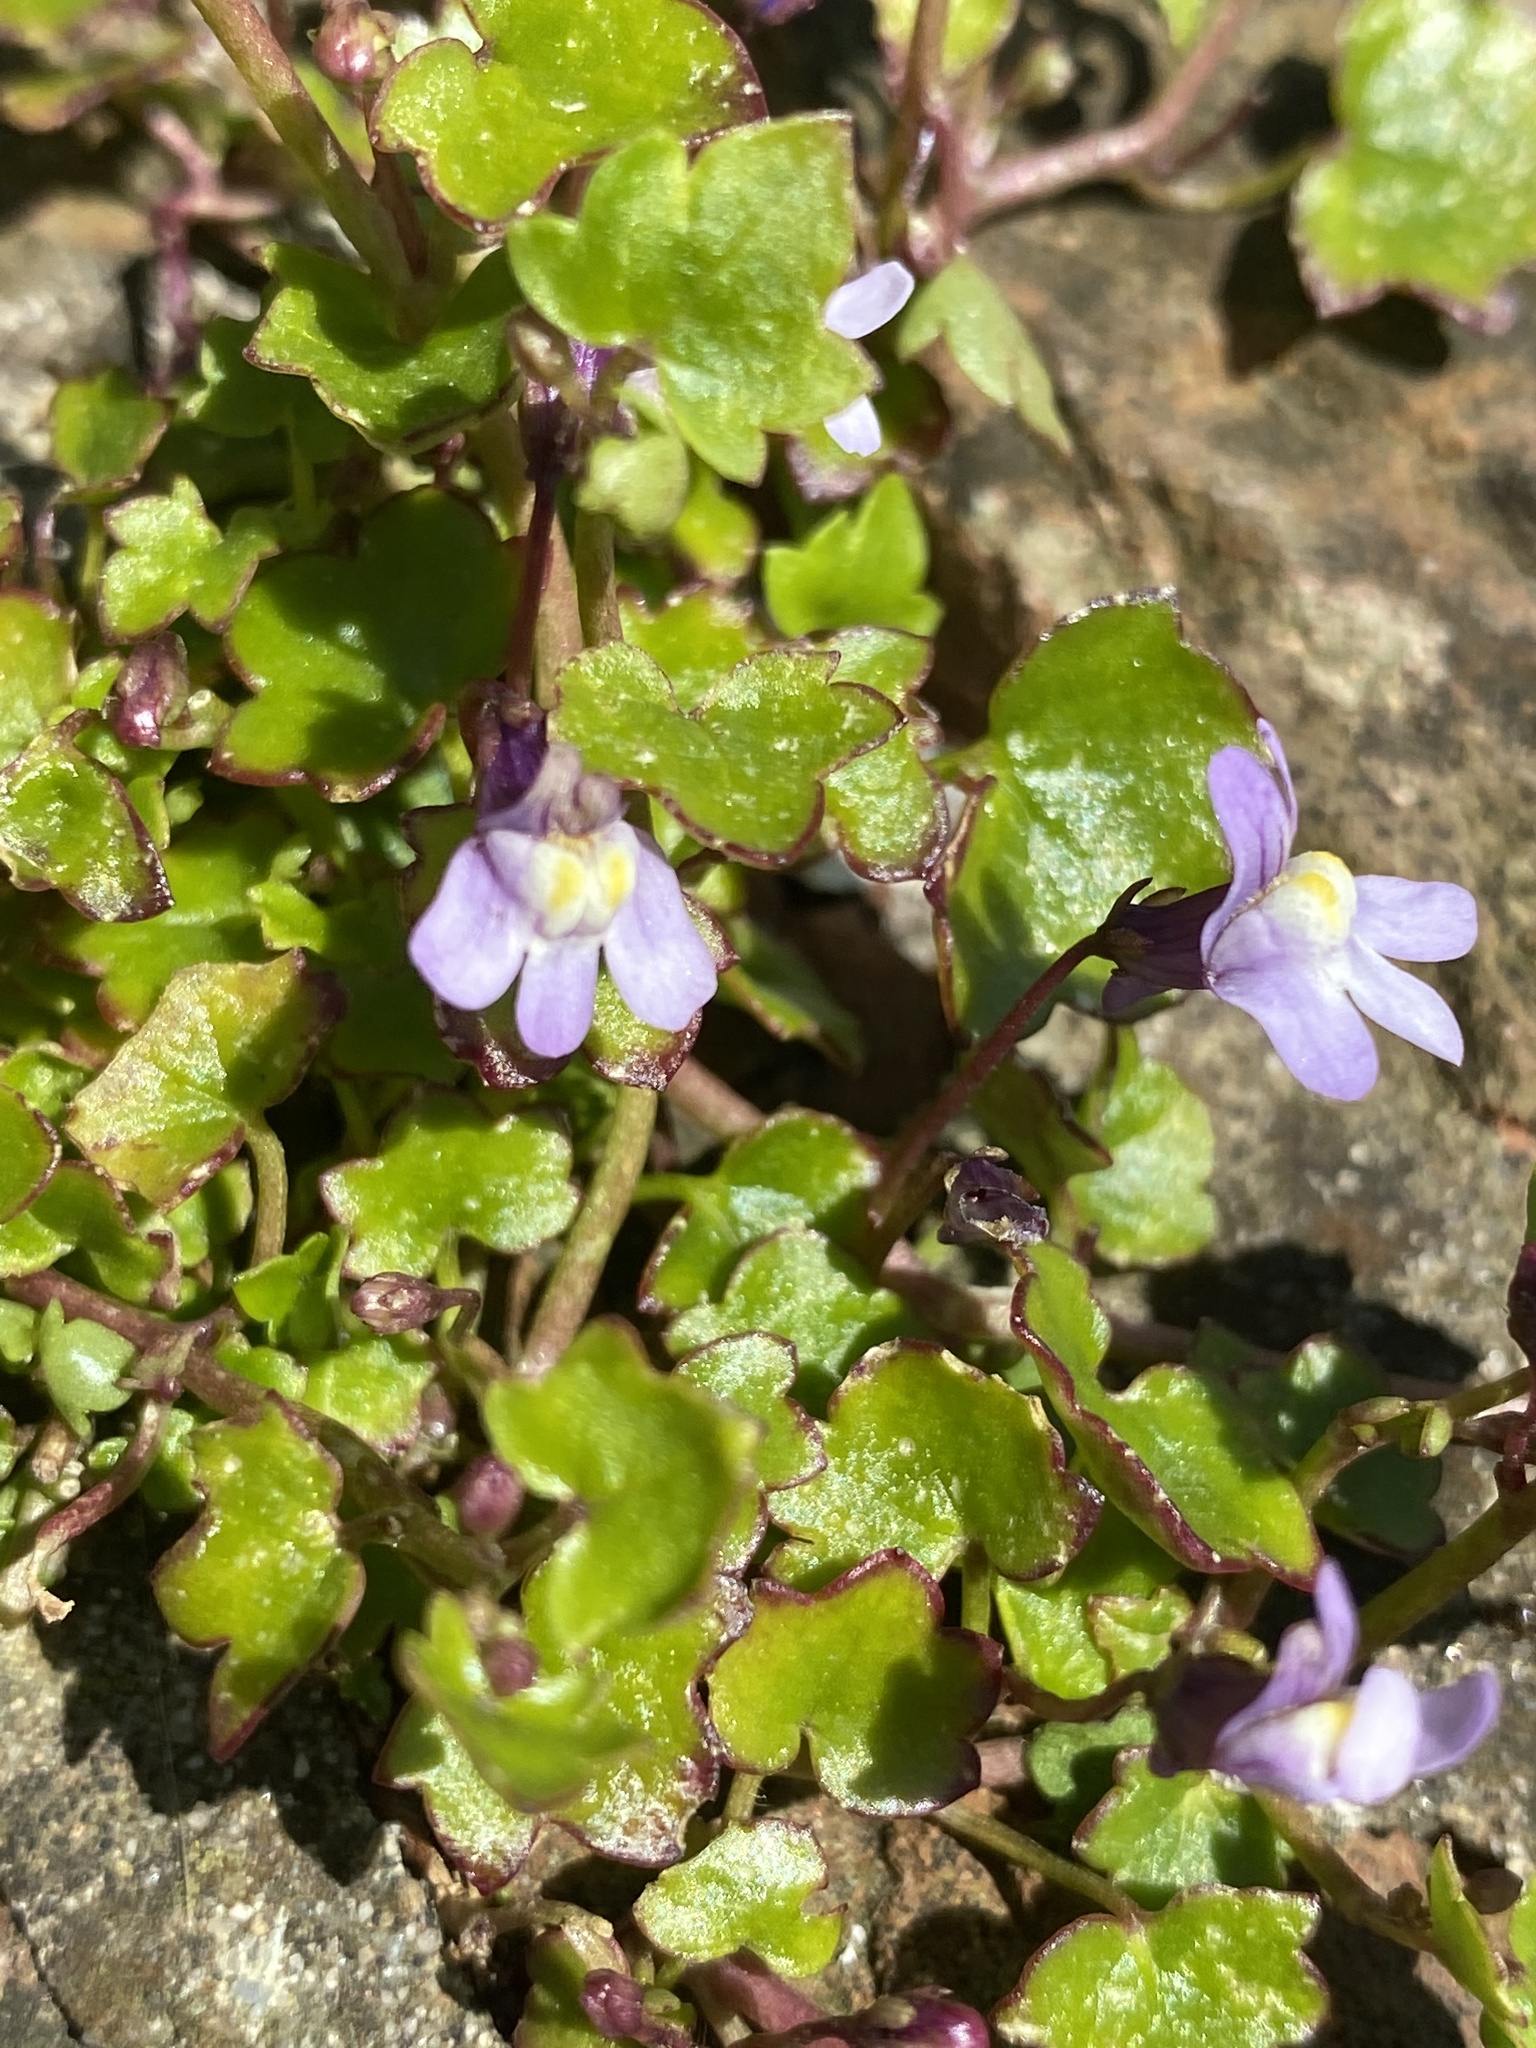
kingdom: Plantae
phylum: Tracheophyta
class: Magnoliopsida
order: Lamiales
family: Plantaginaceae
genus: Cymbalaria
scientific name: Cymbalaria muralis
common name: Ivy-leaved toadflax
